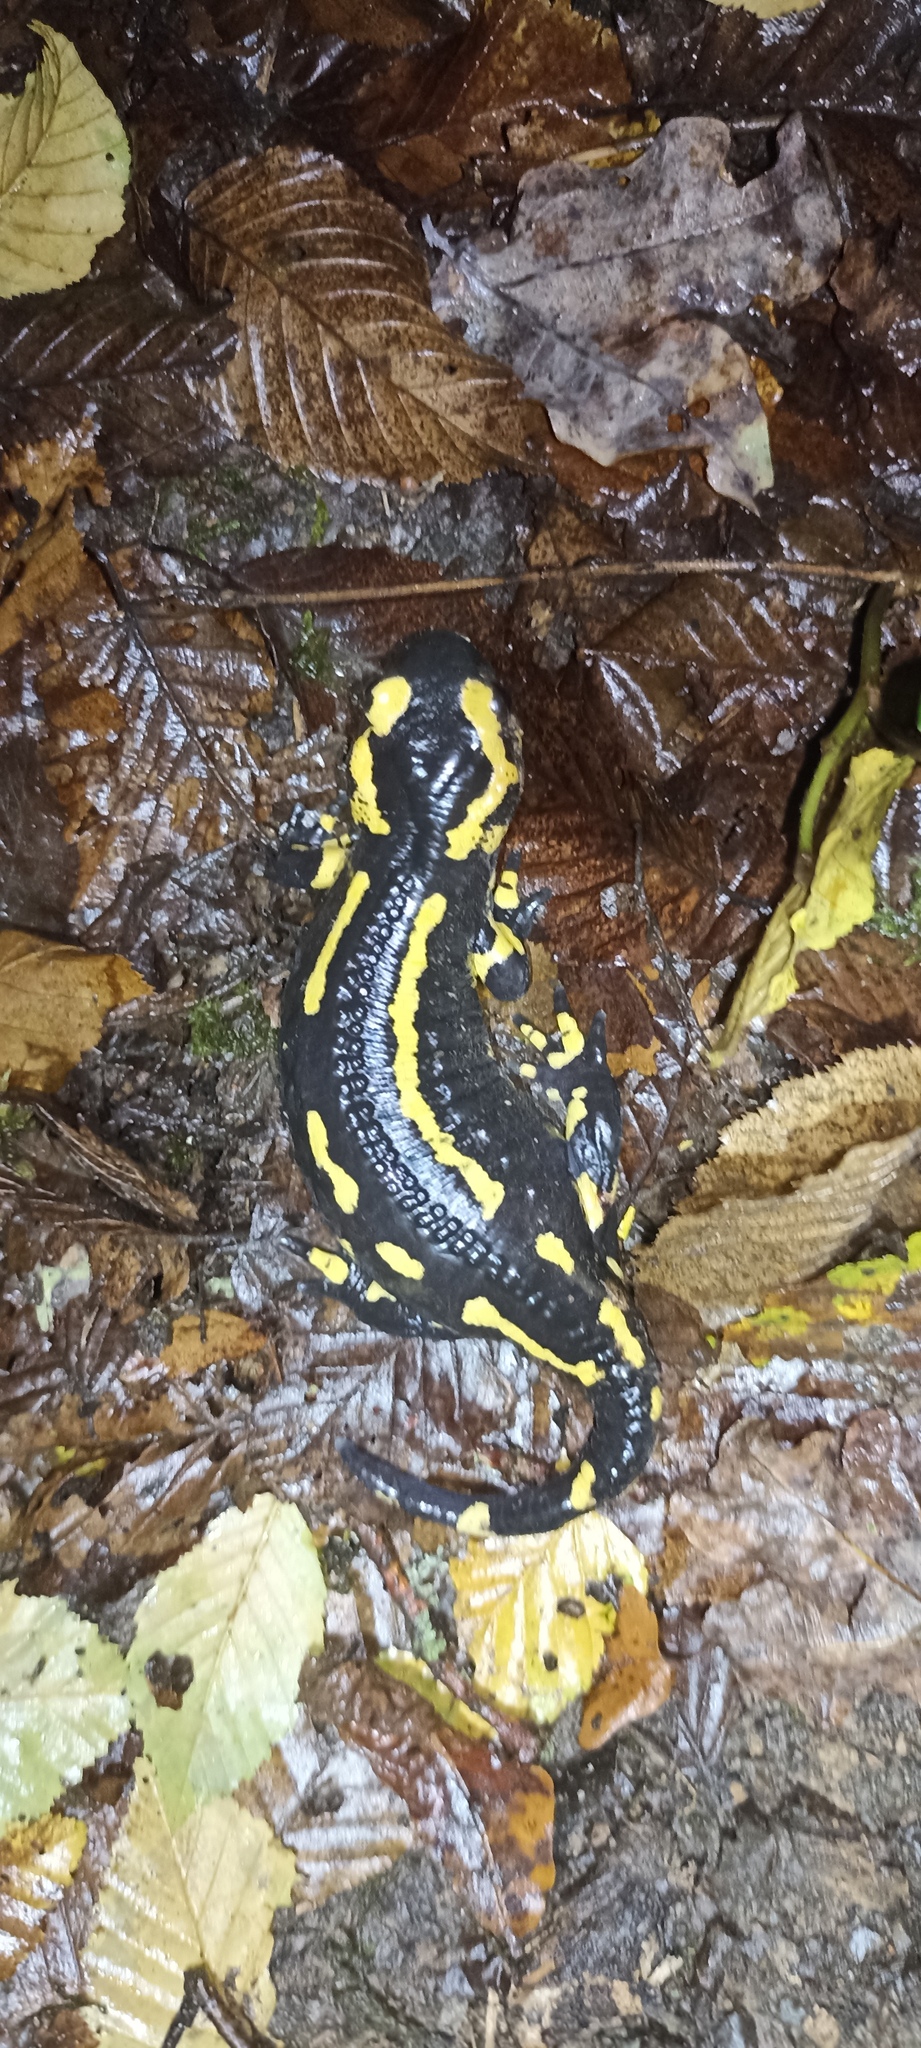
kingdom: Animalia
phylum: Chordata
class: Amphibia
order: Caudata
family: Salamandridae
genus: Salamandra
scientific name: Salamandra salamandra
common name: Fire salamander
